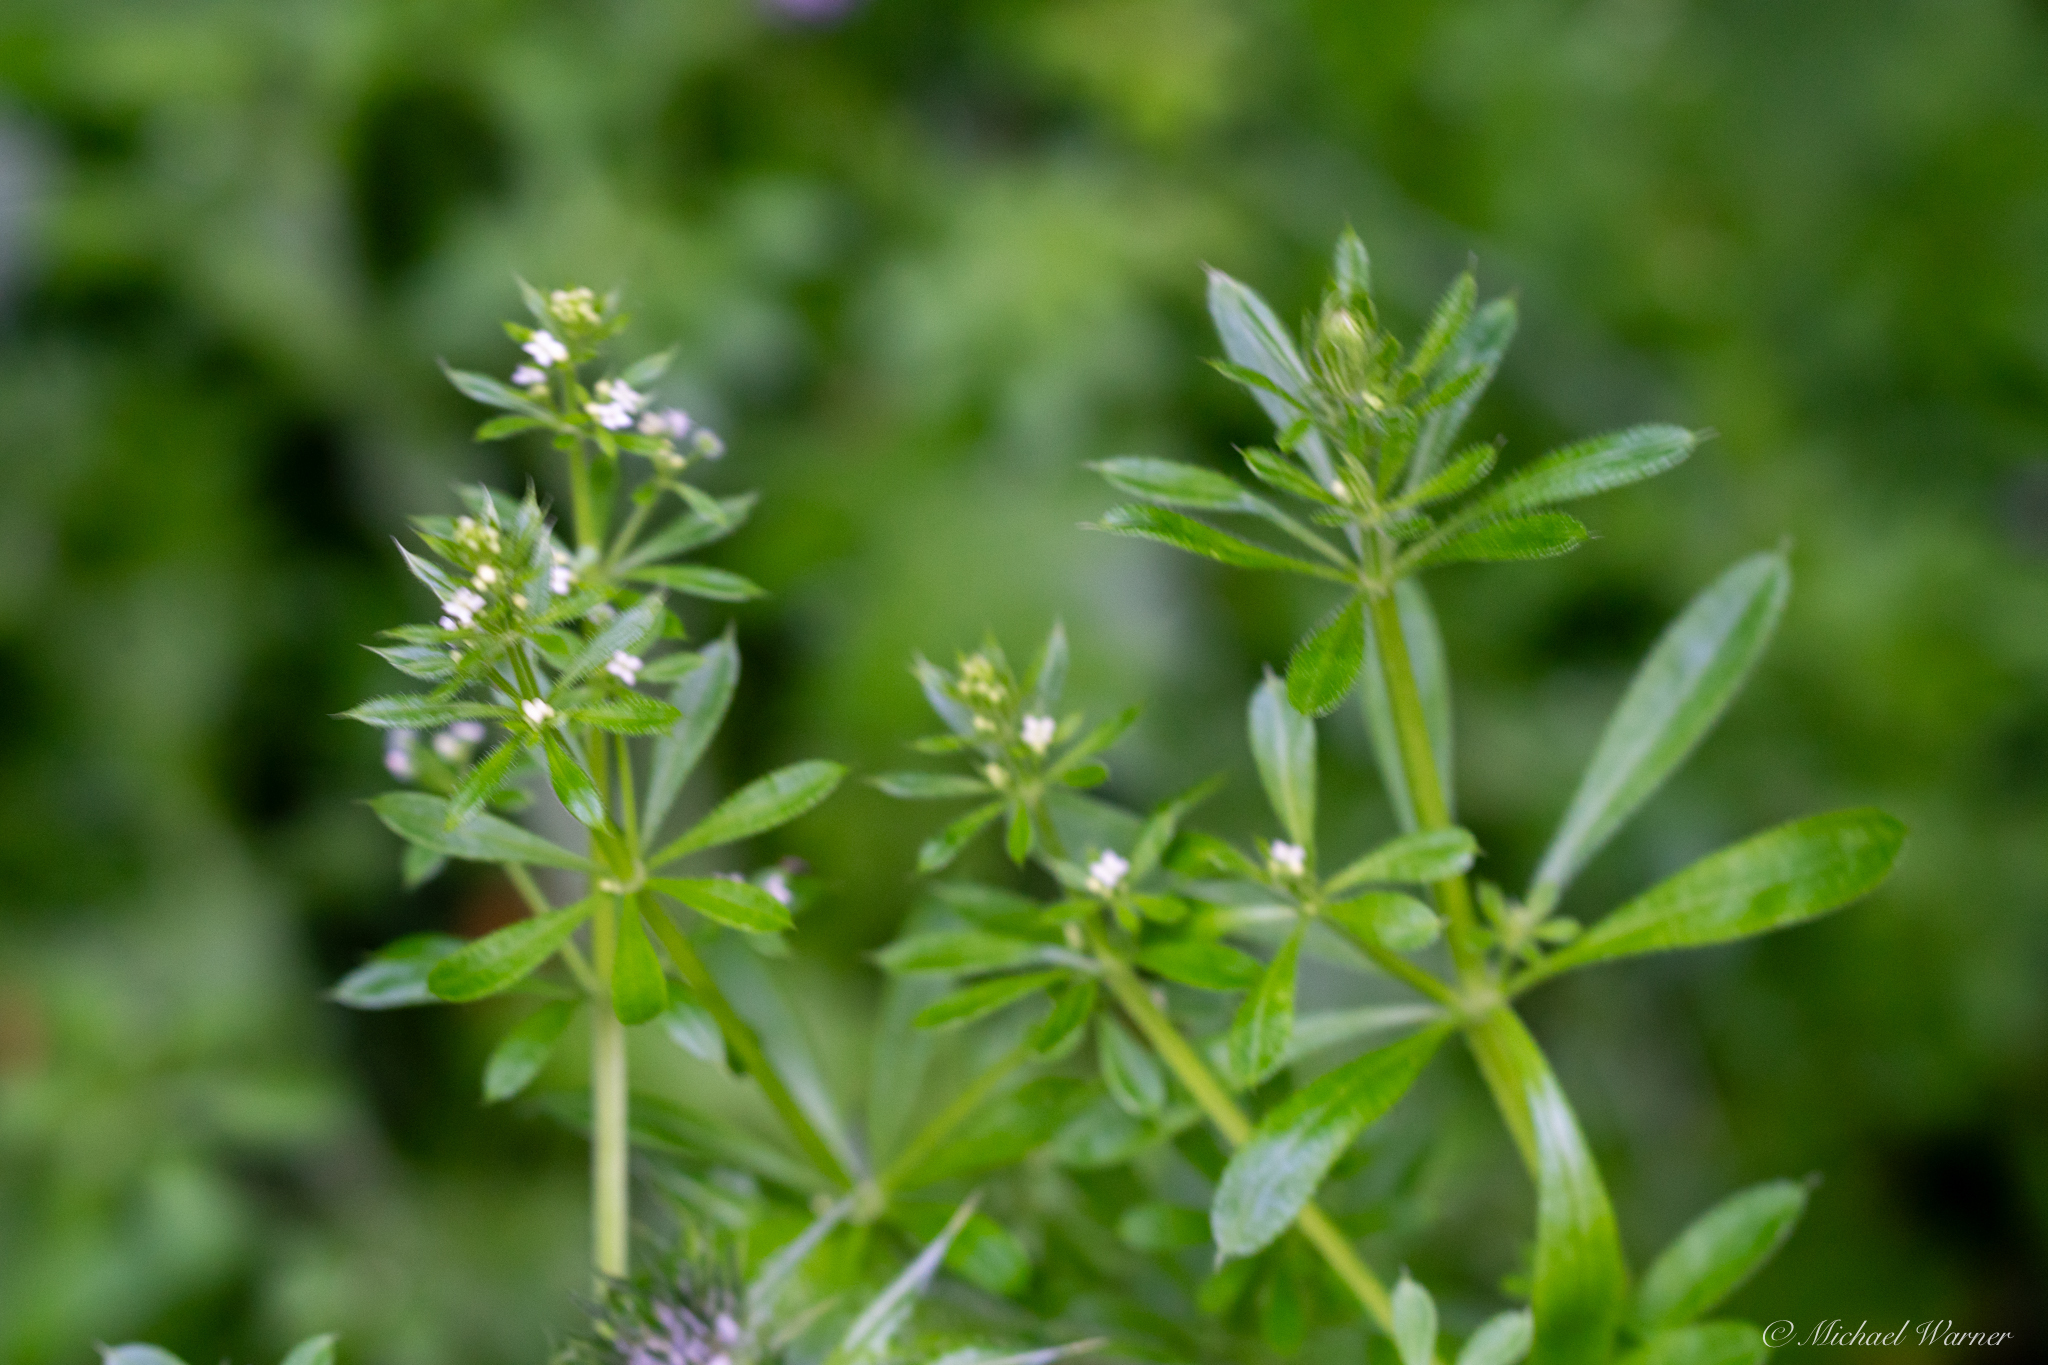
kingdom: Plantae
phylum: Tracheophyta
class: Magnoliopsida
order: Gentianales
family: Rubiaceae
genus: Galium
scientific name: Galium aparine
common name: Cleavers
